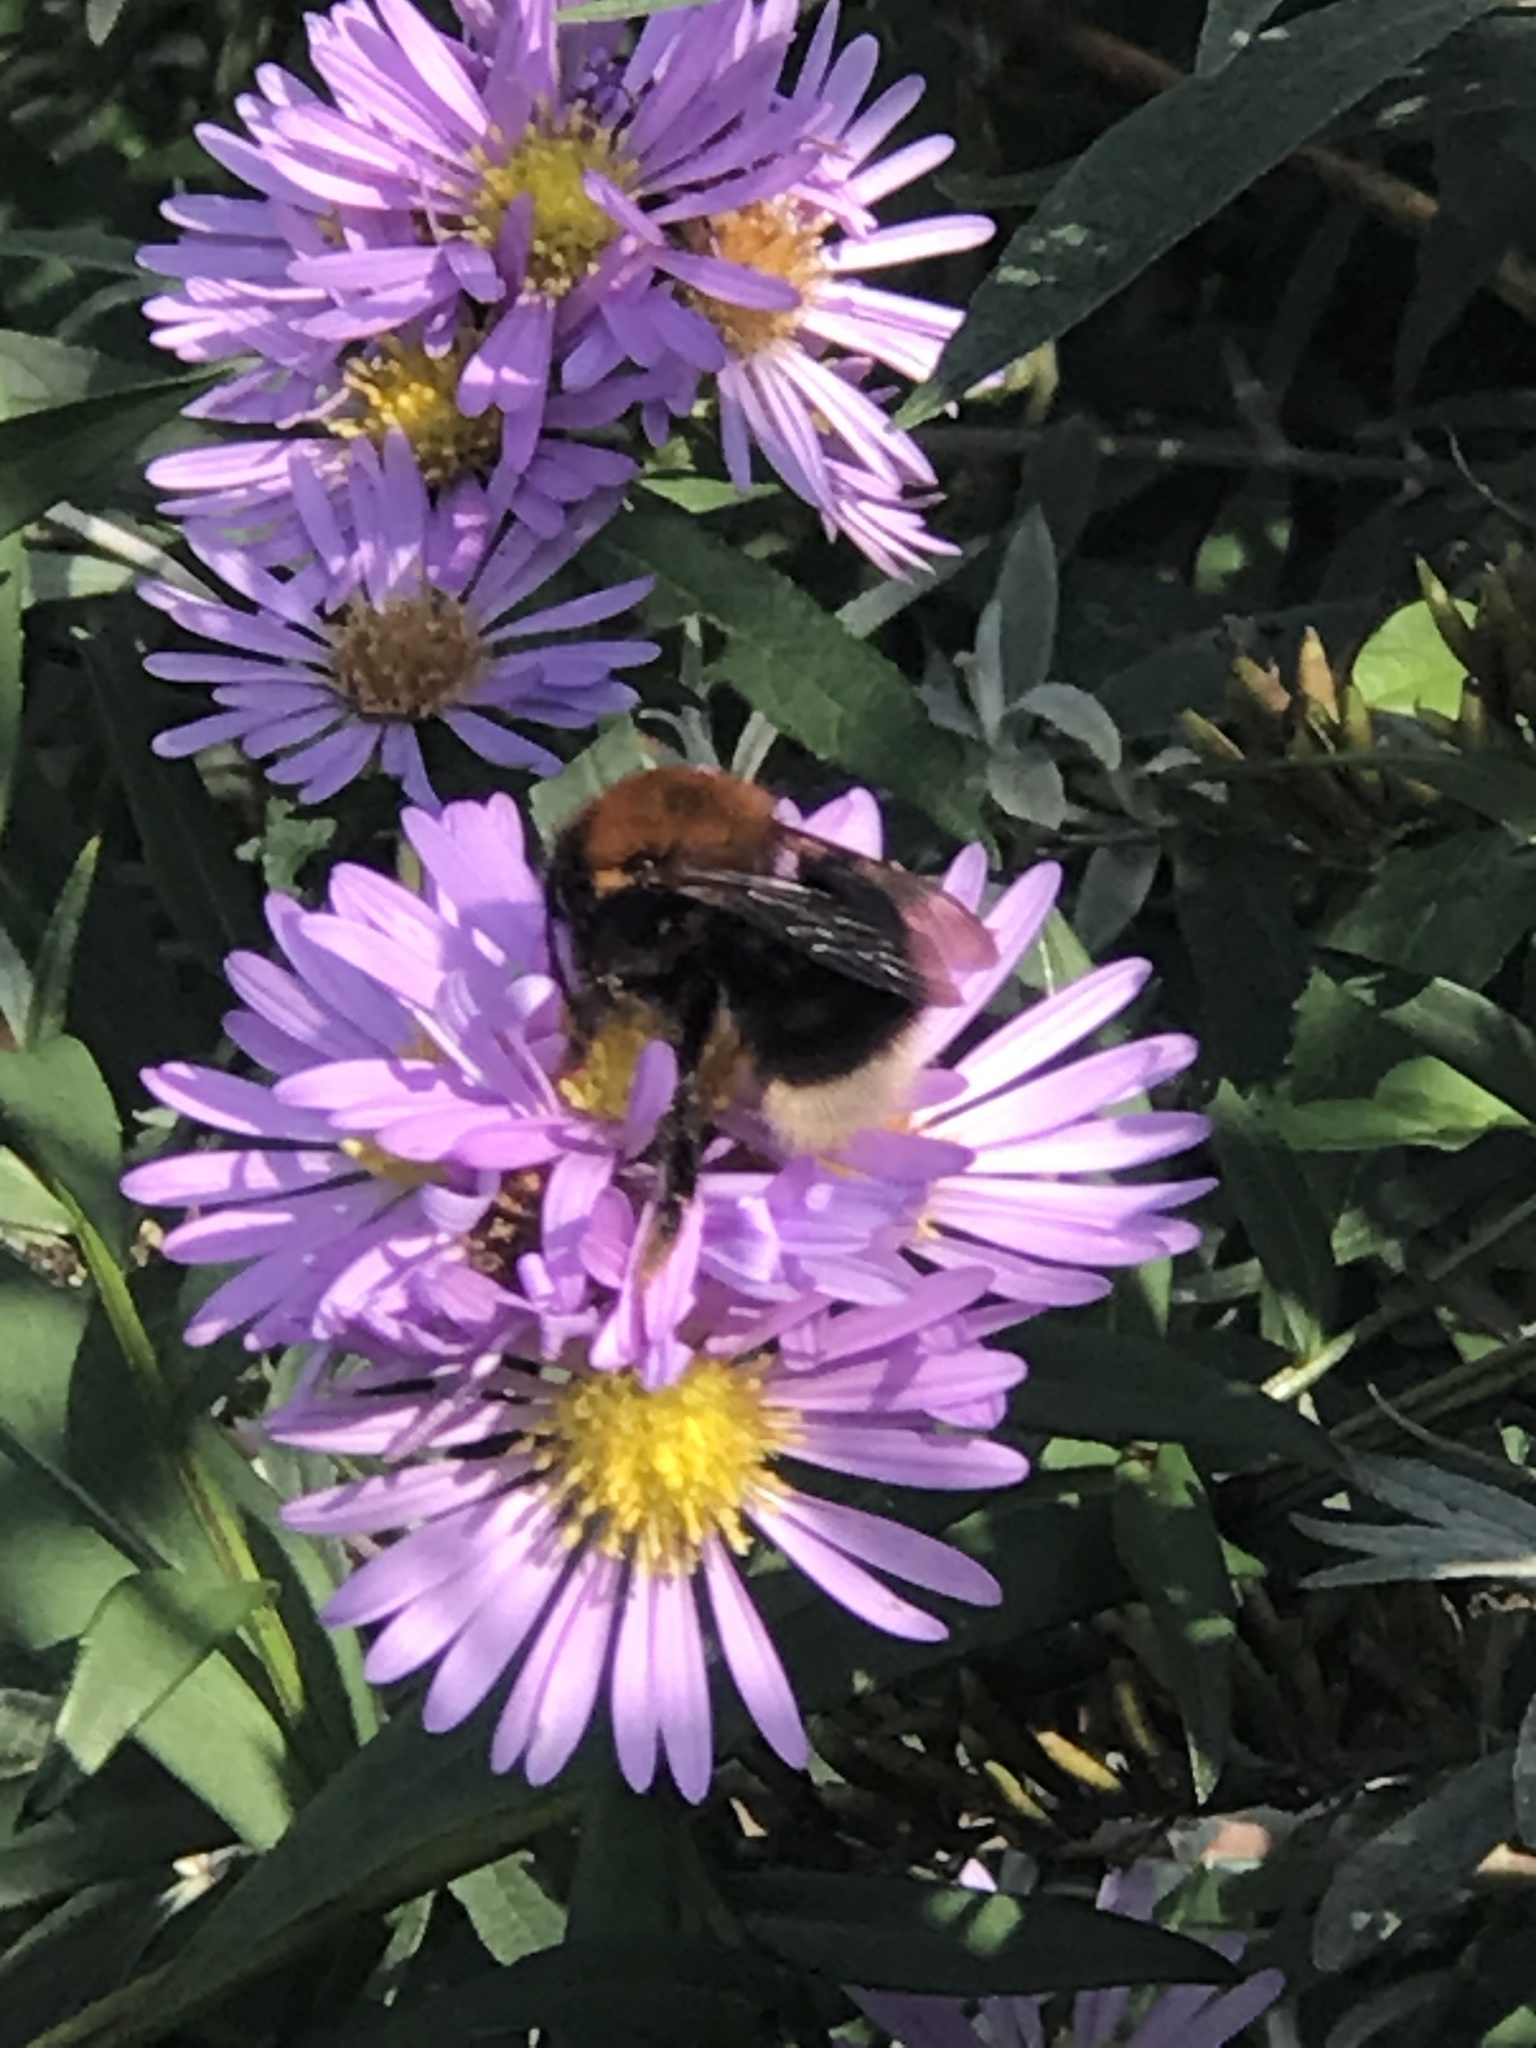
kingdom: Animalia
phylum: Arthropoda
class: Insecta
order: Hymenoptera
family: Apidae
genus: Bombus
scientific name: Bombus hypnorum
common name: New garden bumblebee
